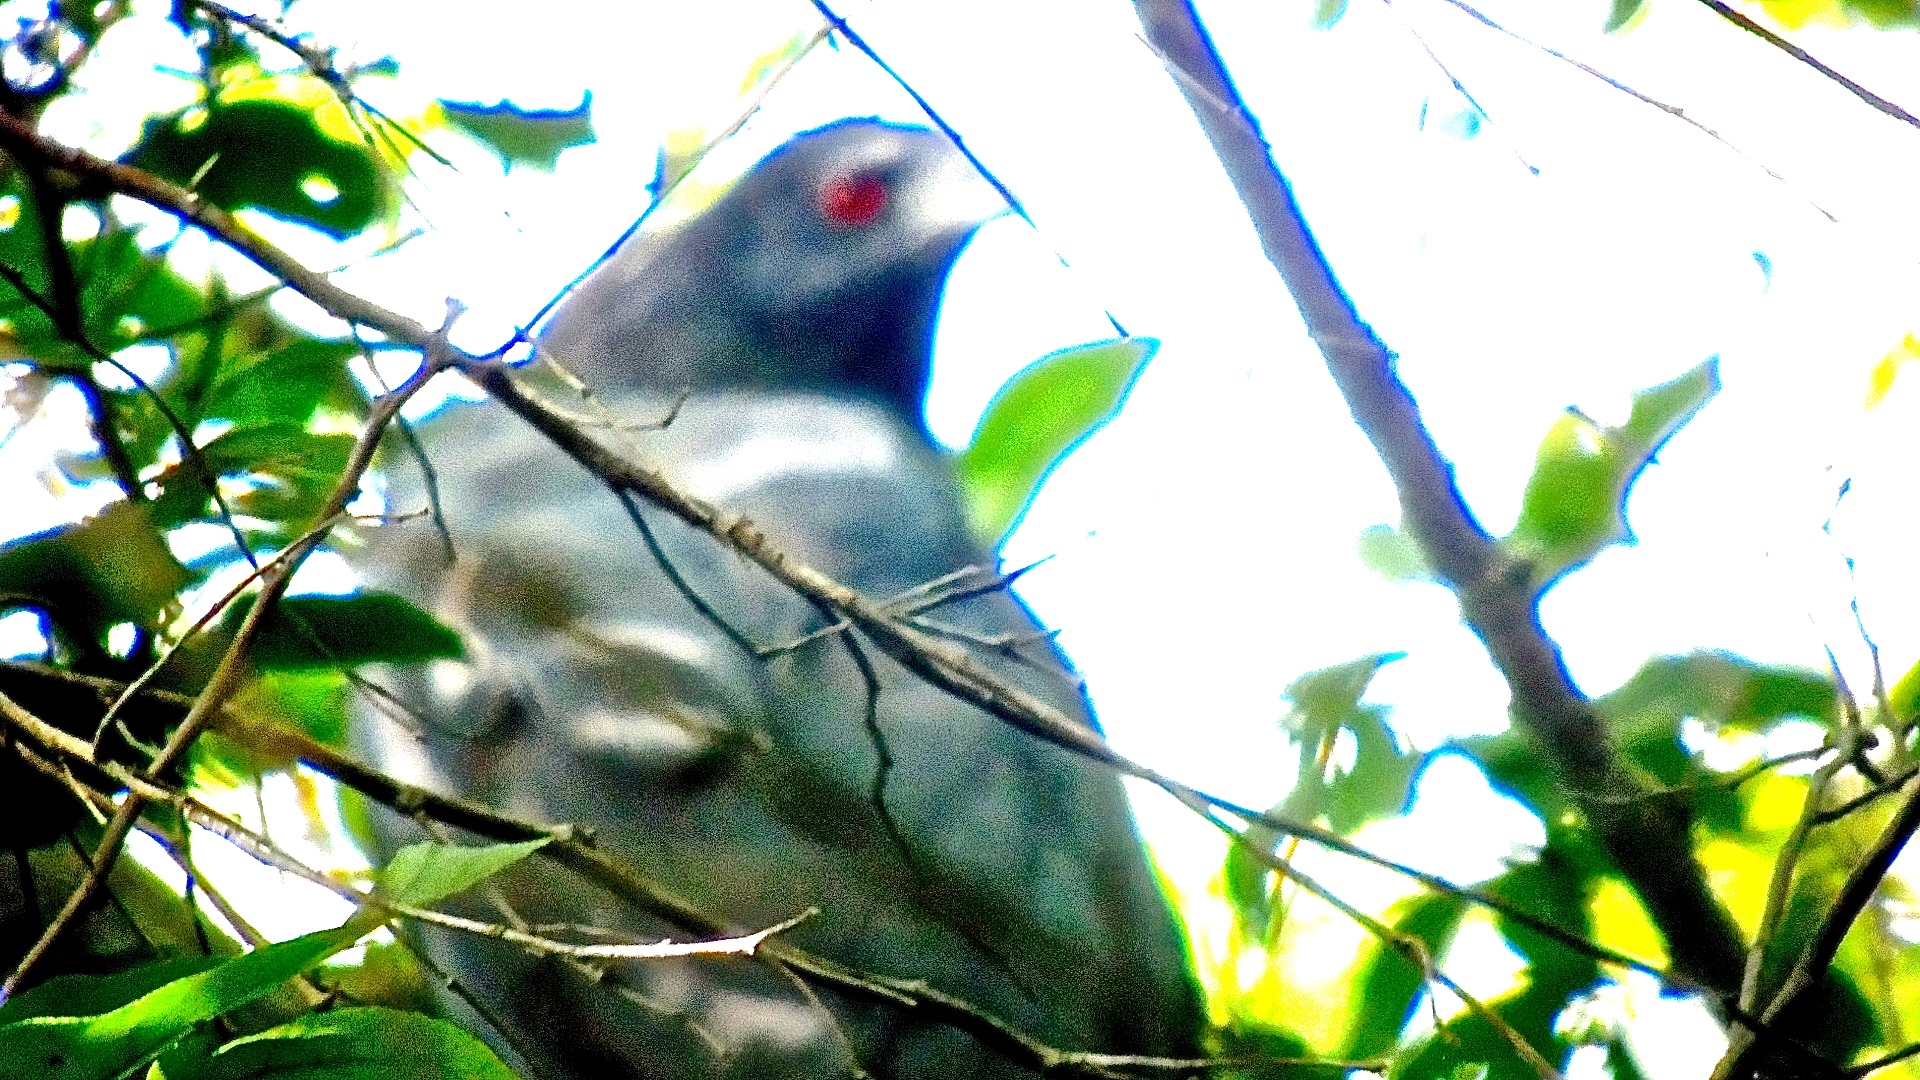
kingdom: Animalia
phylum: Chordata
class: Aves
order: Accipitriformes
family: Accipitridae
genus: Geranospiza
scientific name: Geranospiza caerulescens
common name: Crane hawk
